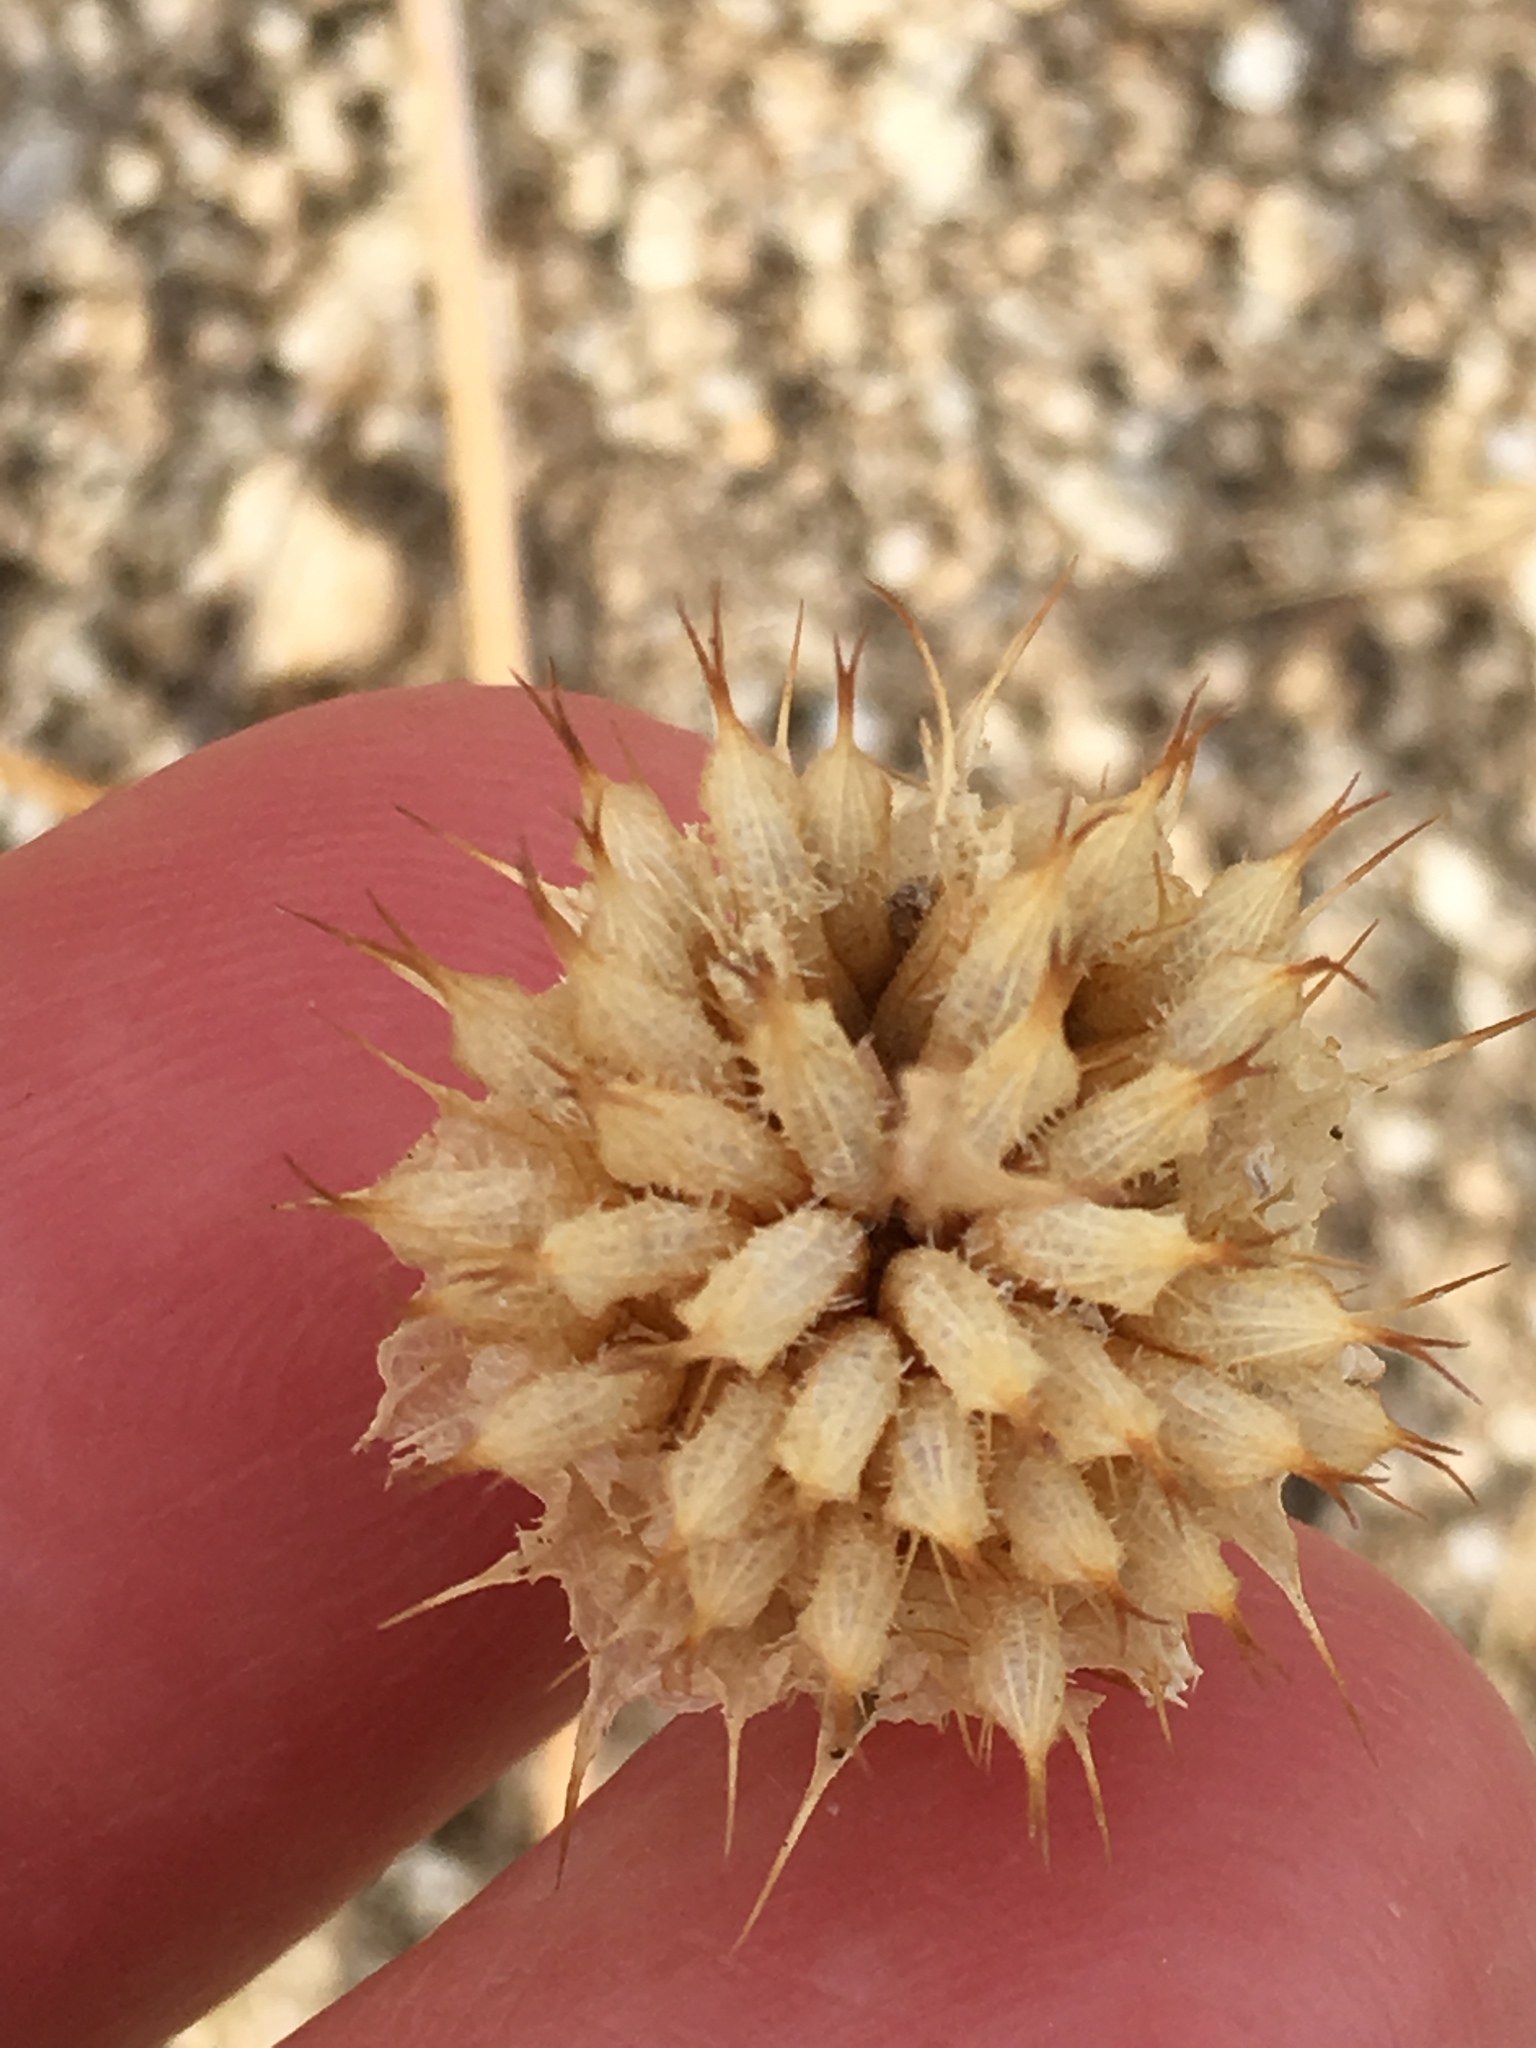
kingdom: Plantae
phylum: Tracheophyta
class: Magnoliopsida
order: Lamiales
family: Lamiaceae
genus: Salvia
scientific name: Salvia columbariae
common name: Chia
